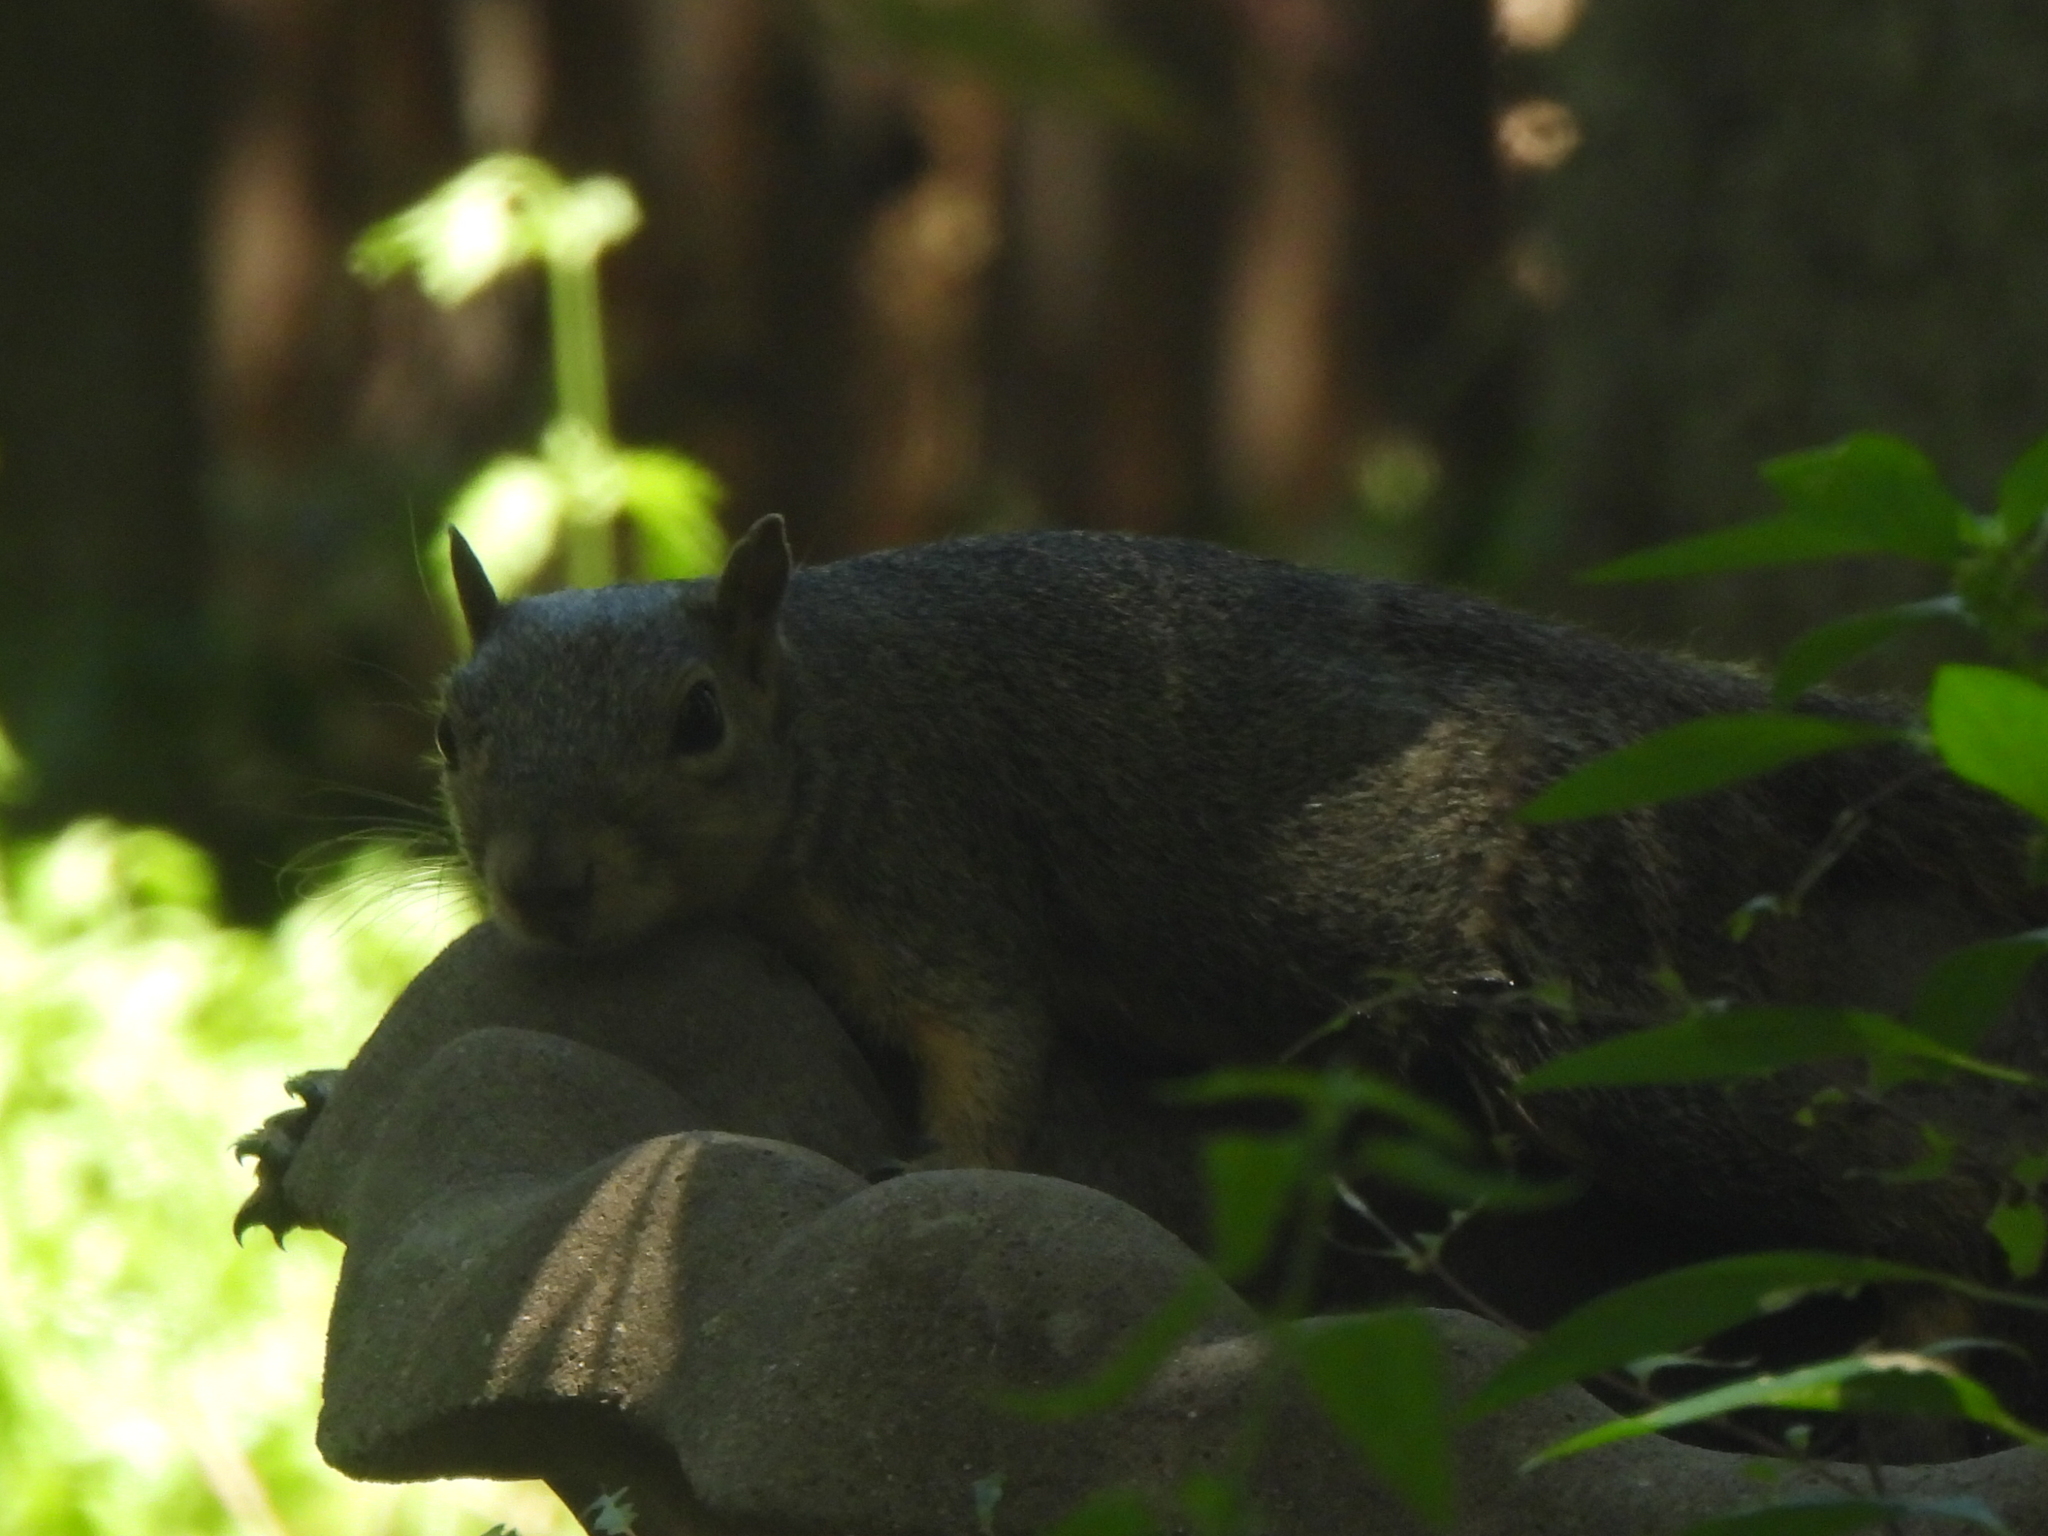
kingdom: Animalia
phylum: Chordata
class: Mammalia
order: Rodentia
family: Sciuridae
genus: Sciurus
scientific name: Sciurus niger
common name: Fox squirrel
